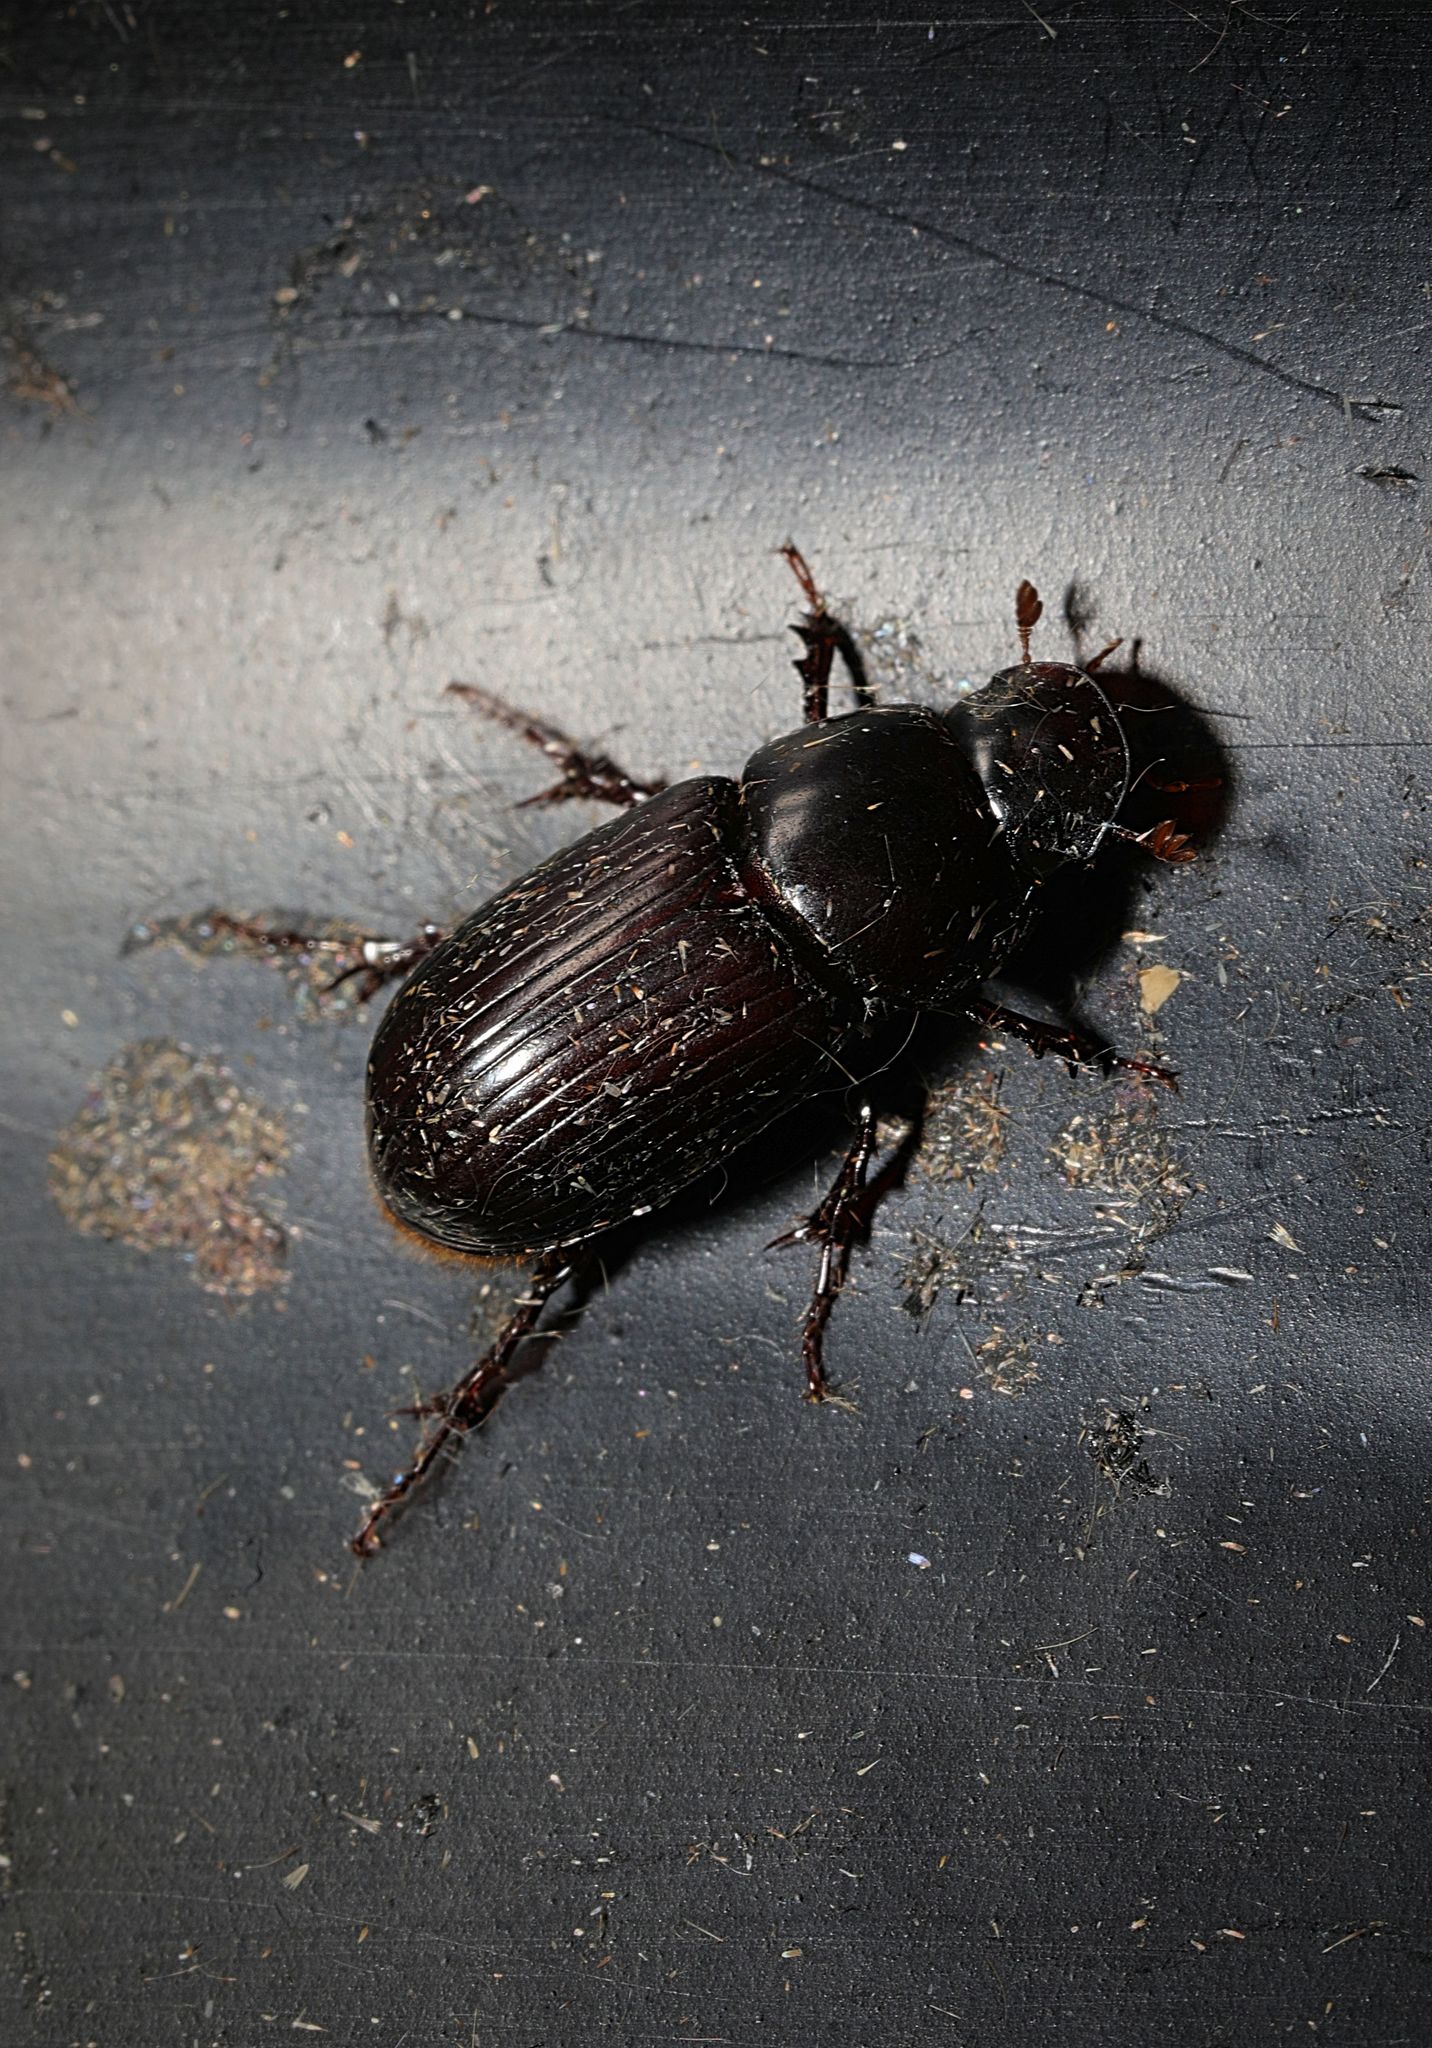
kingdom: Animalia
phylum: Arthropoda
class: Insecta
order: Coleoptera
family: Scarabaeidae
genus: Acrossus
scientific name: Acrossus rufipes
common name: Night-flying dung beetle
